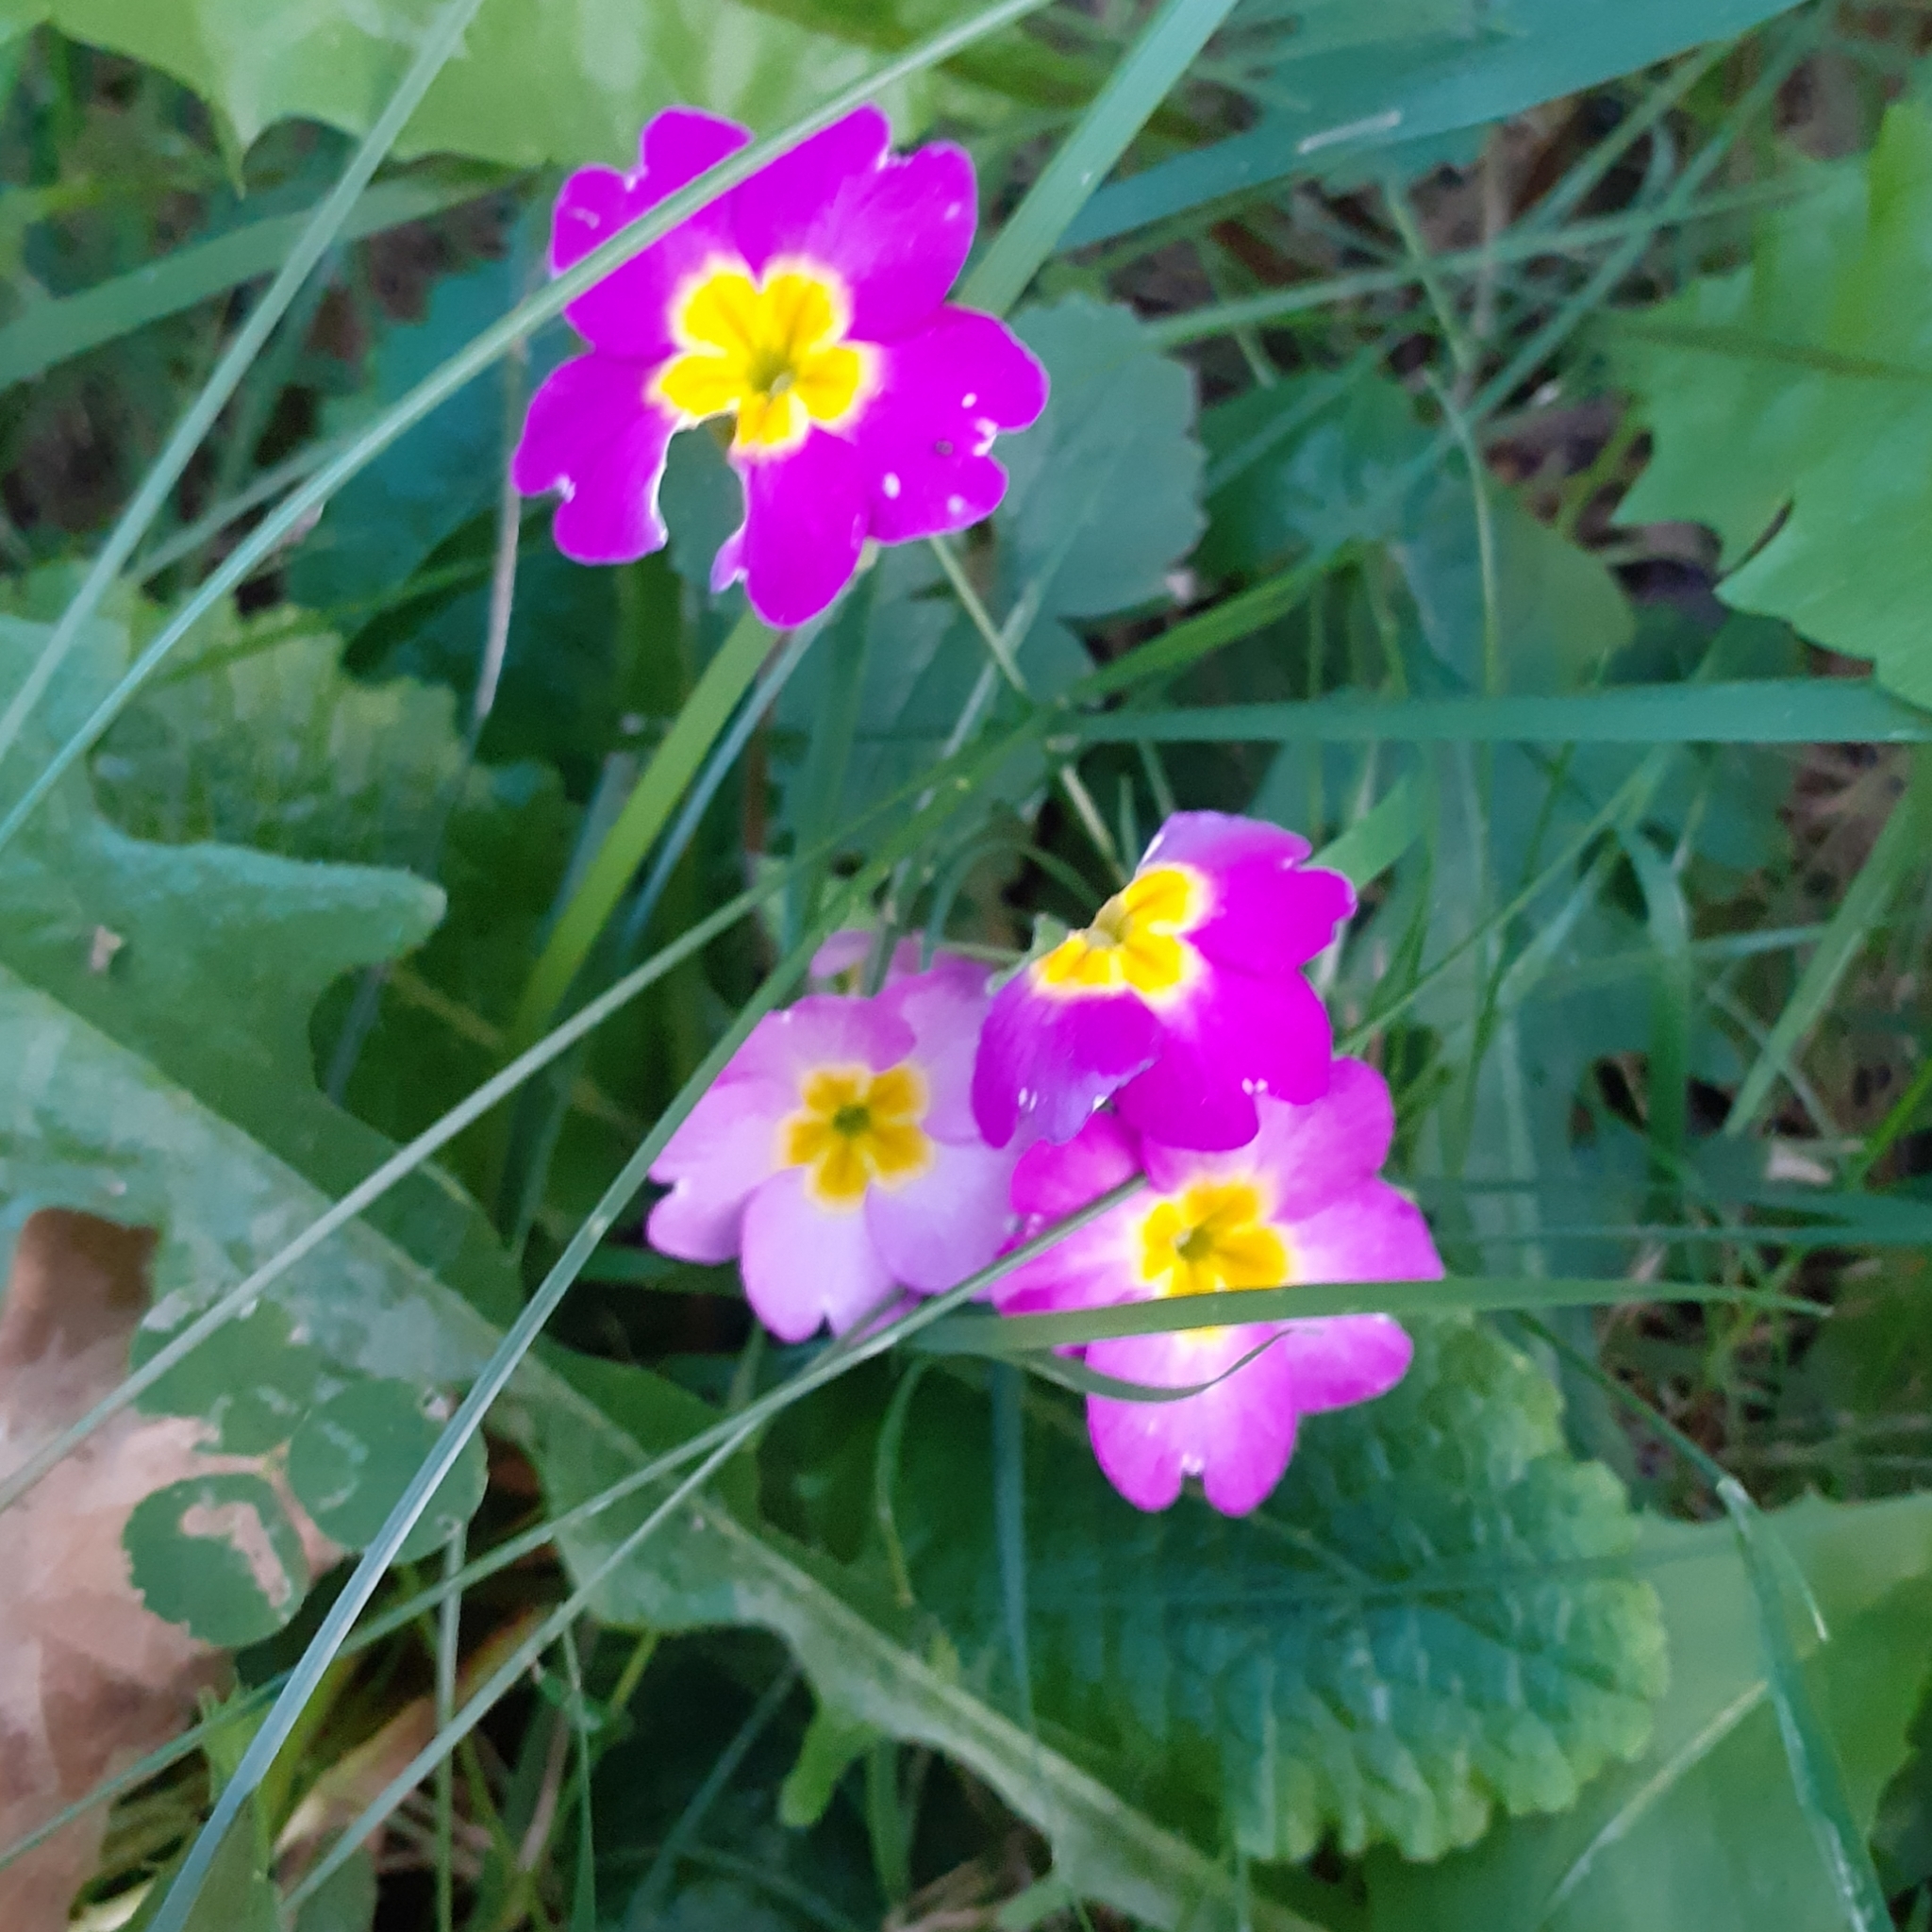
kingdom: Plantae
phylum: Tracheophyta
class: Magnoliopsida
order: Ericales
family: Primulaceae
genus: Primula
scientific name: Primula vulgaris
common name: Primrose
